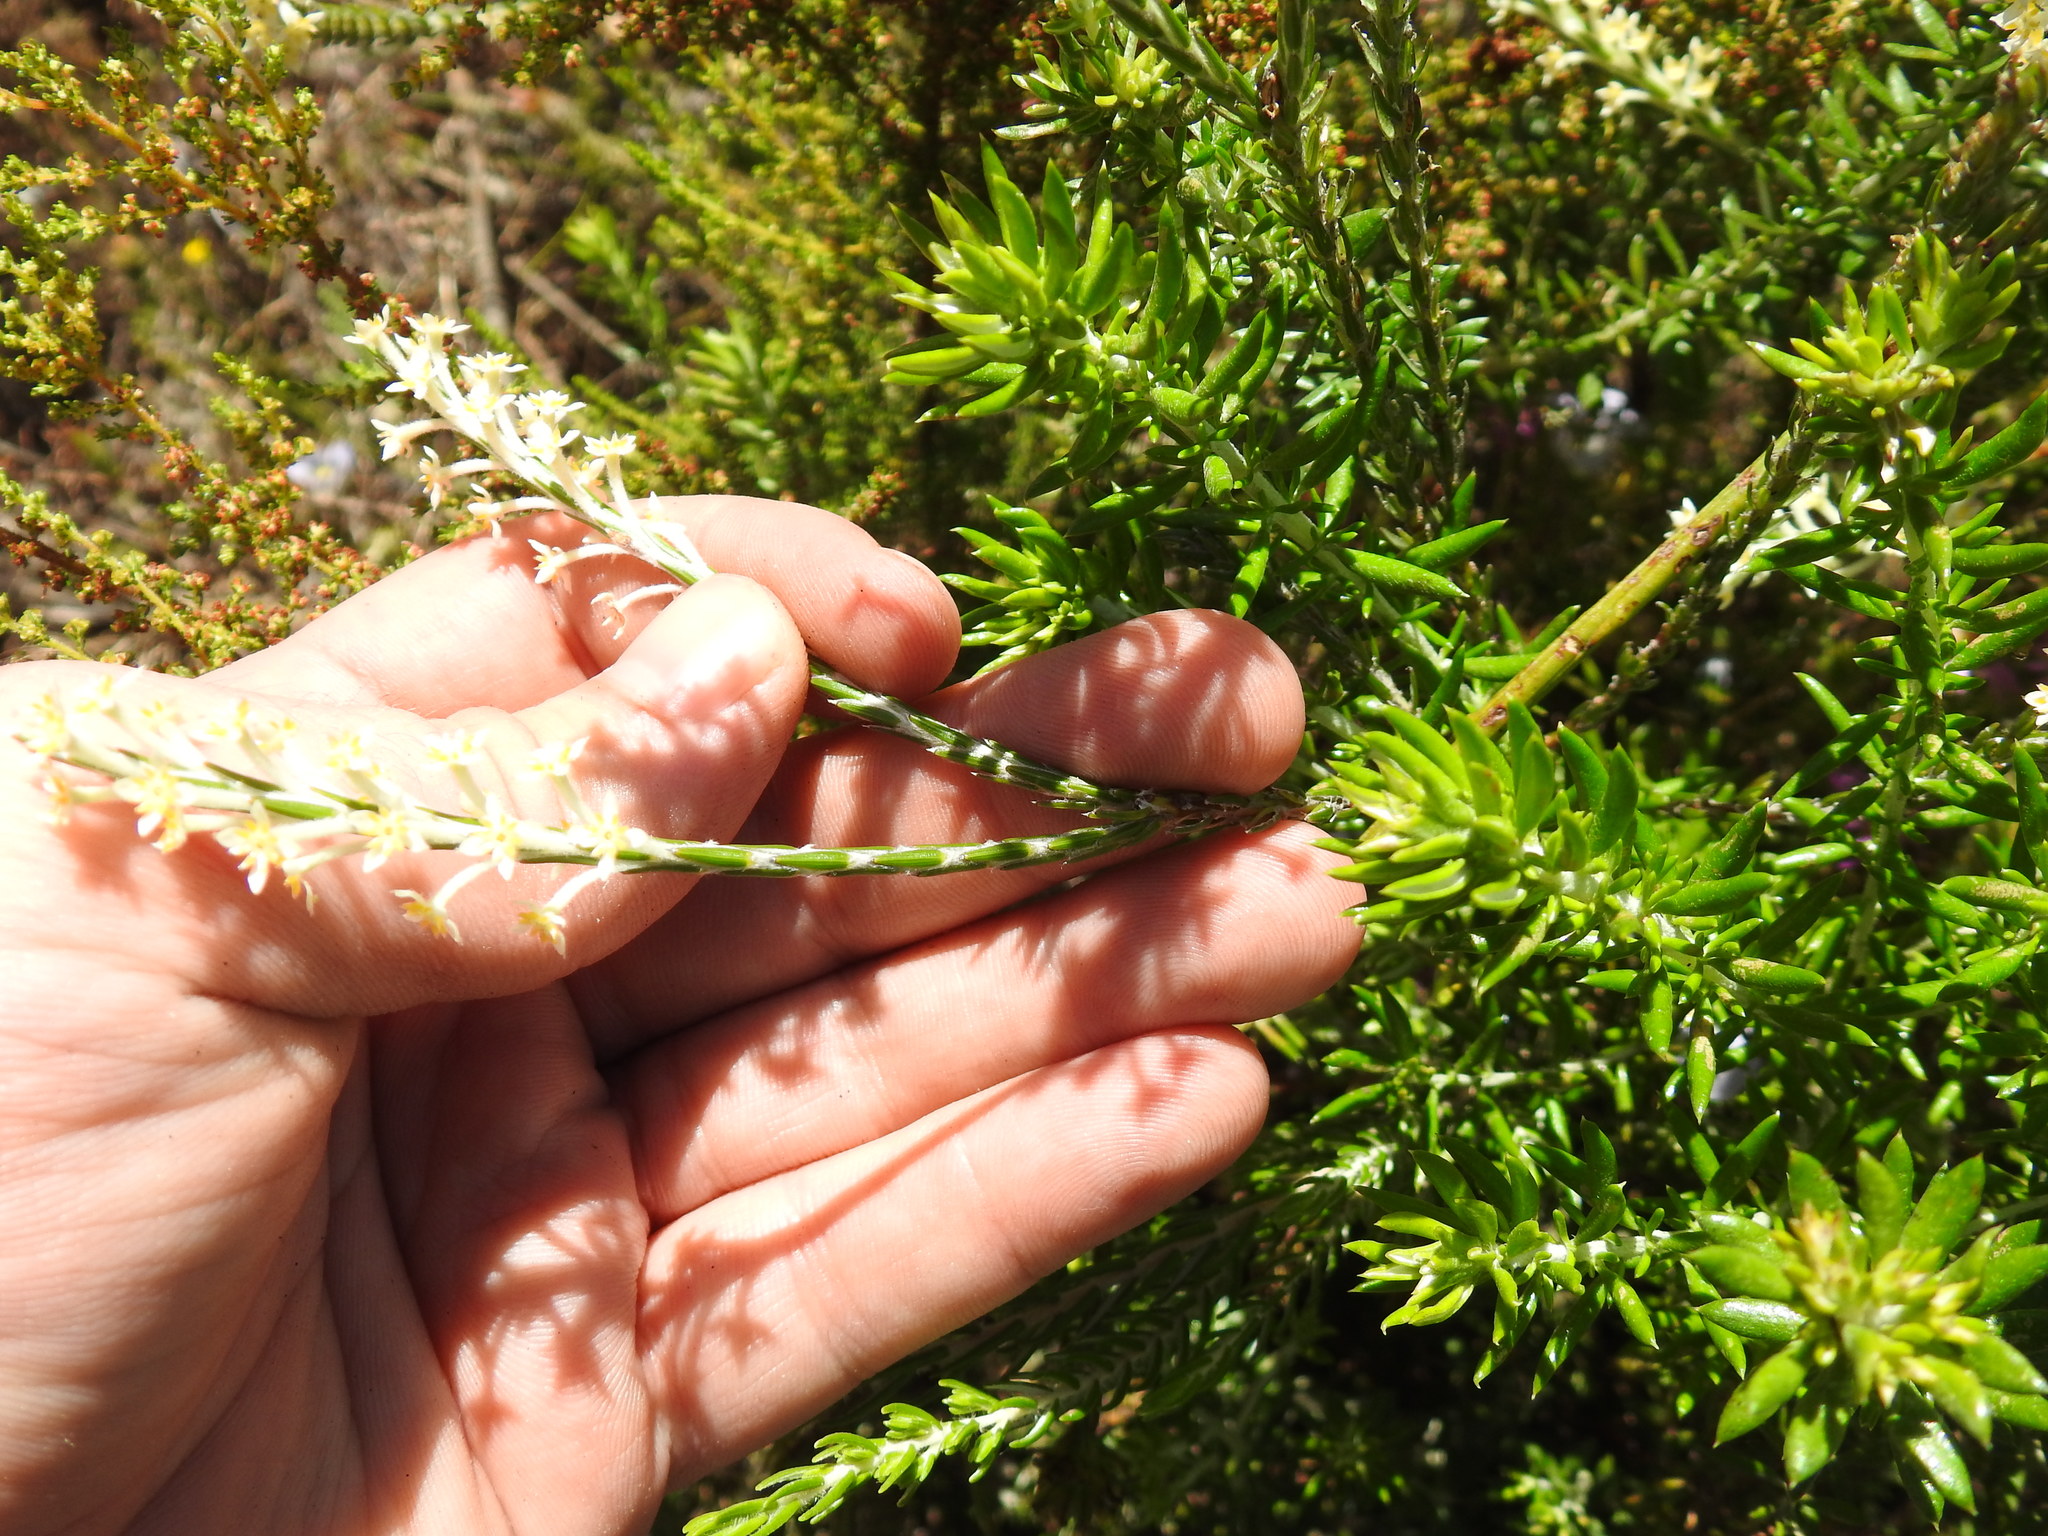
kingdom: Plantae
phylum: Tracheophyta
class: Magnoliopsida
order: Malvales
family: Thymelaeaceae
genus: Struthiola
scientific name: Struthiola ciliata
